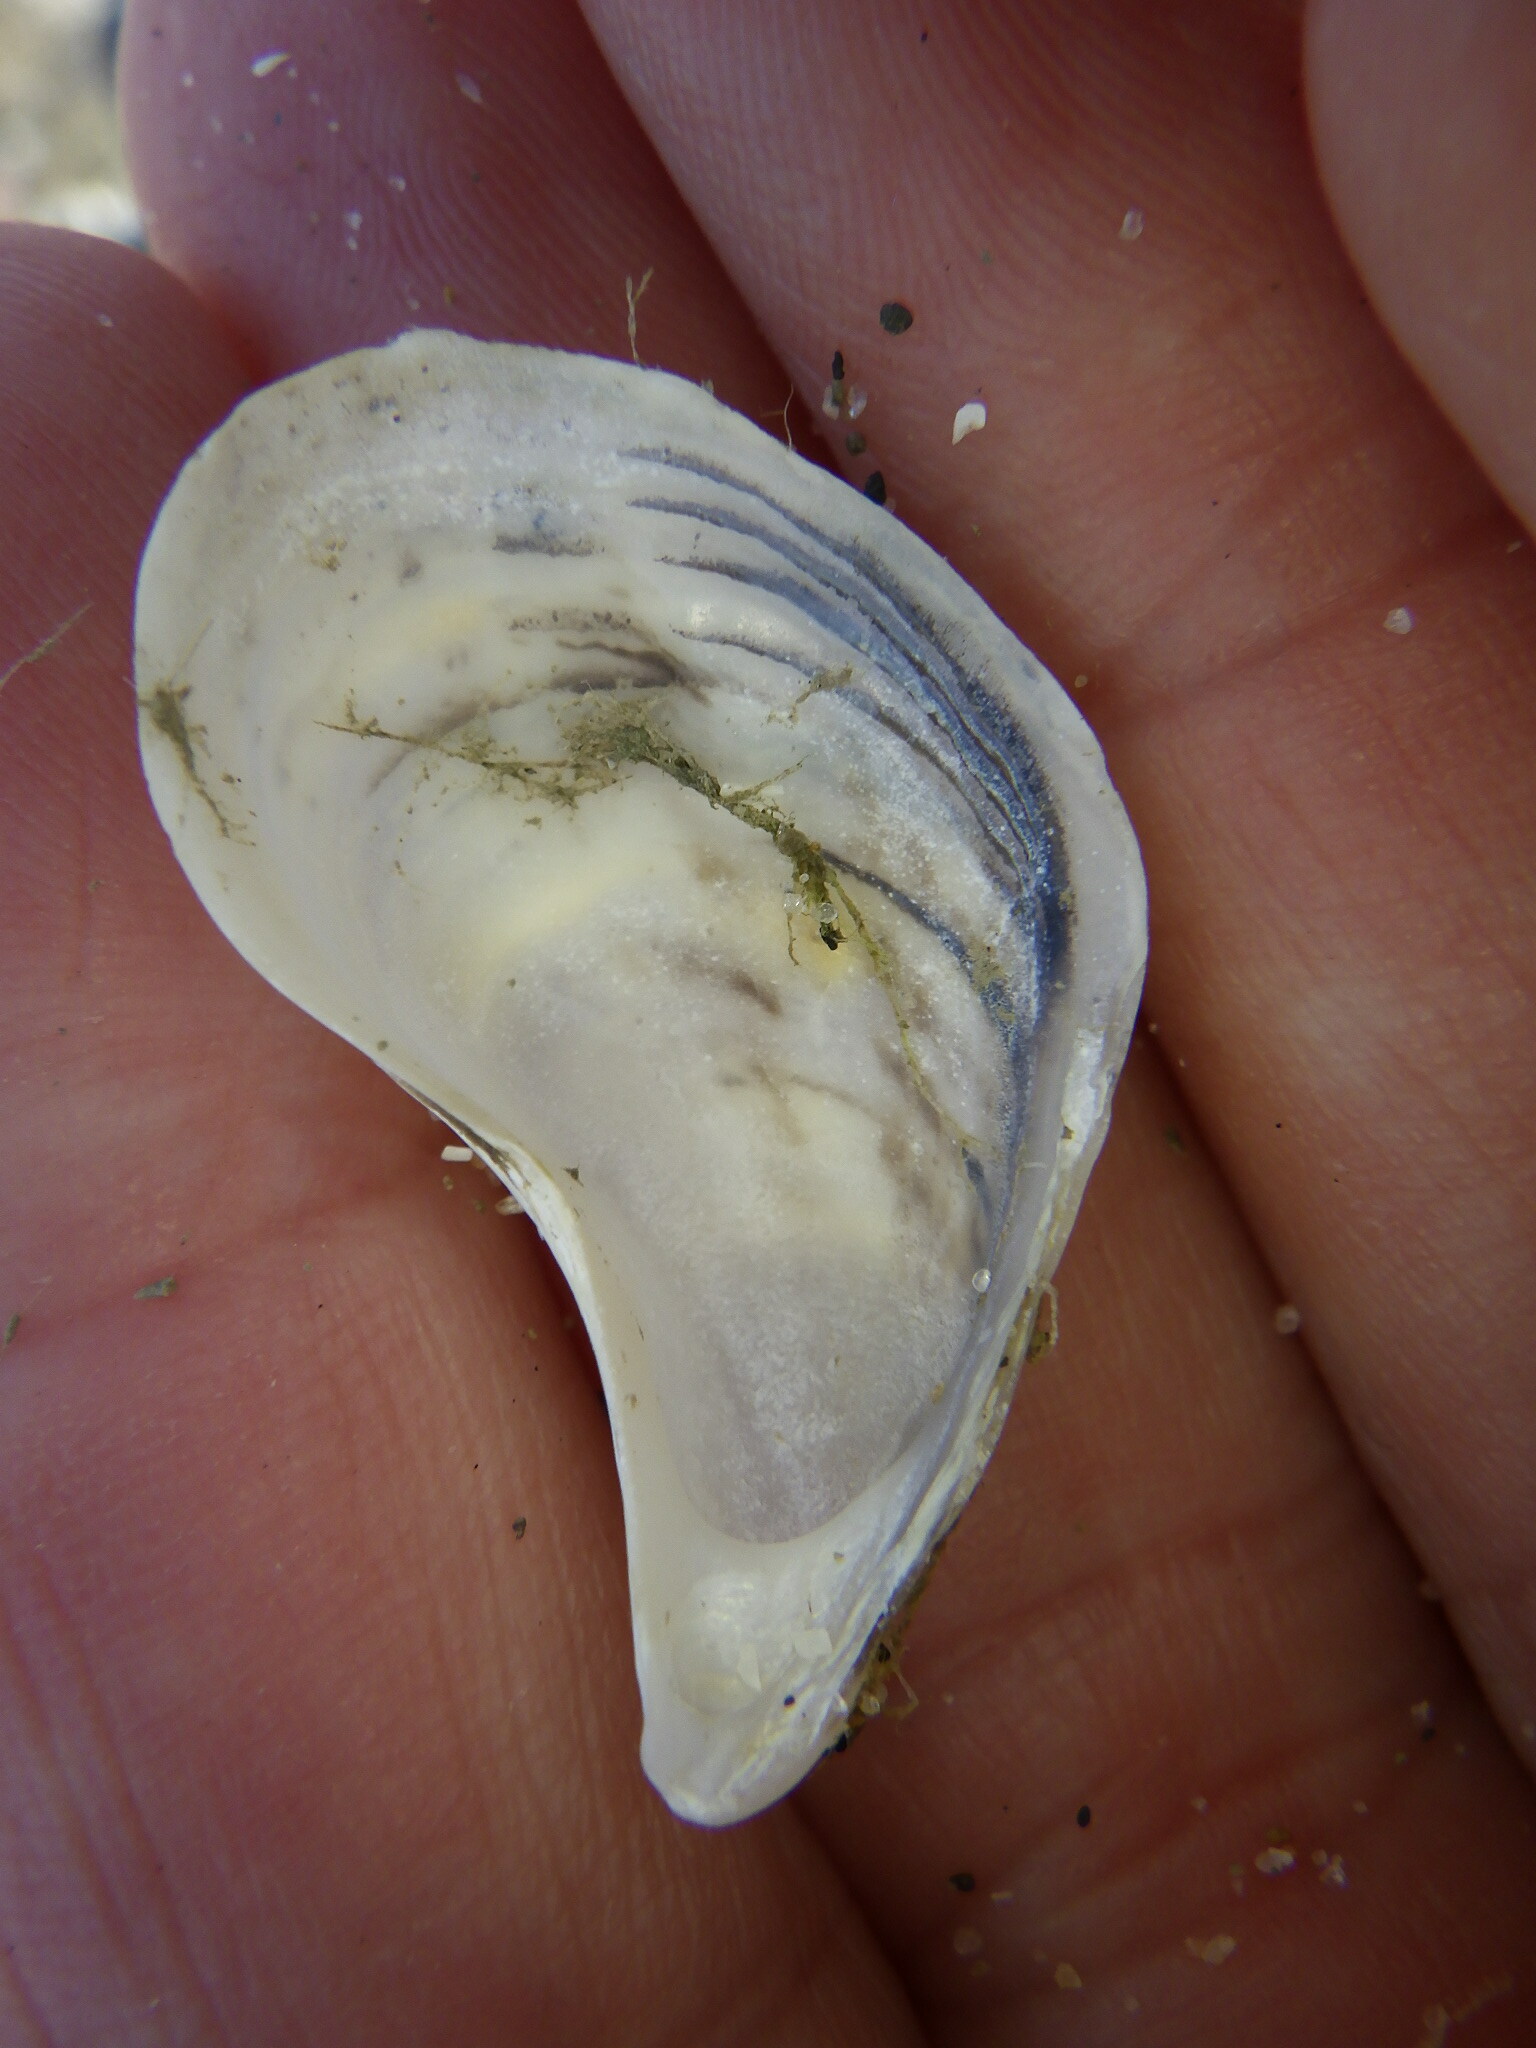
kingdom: Animalia
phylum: Mollusca
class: Bivalvia
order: Myida
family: Dreissenidae
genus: Dreissena
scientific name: Dreissena bugensis
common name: Quagga mussel
